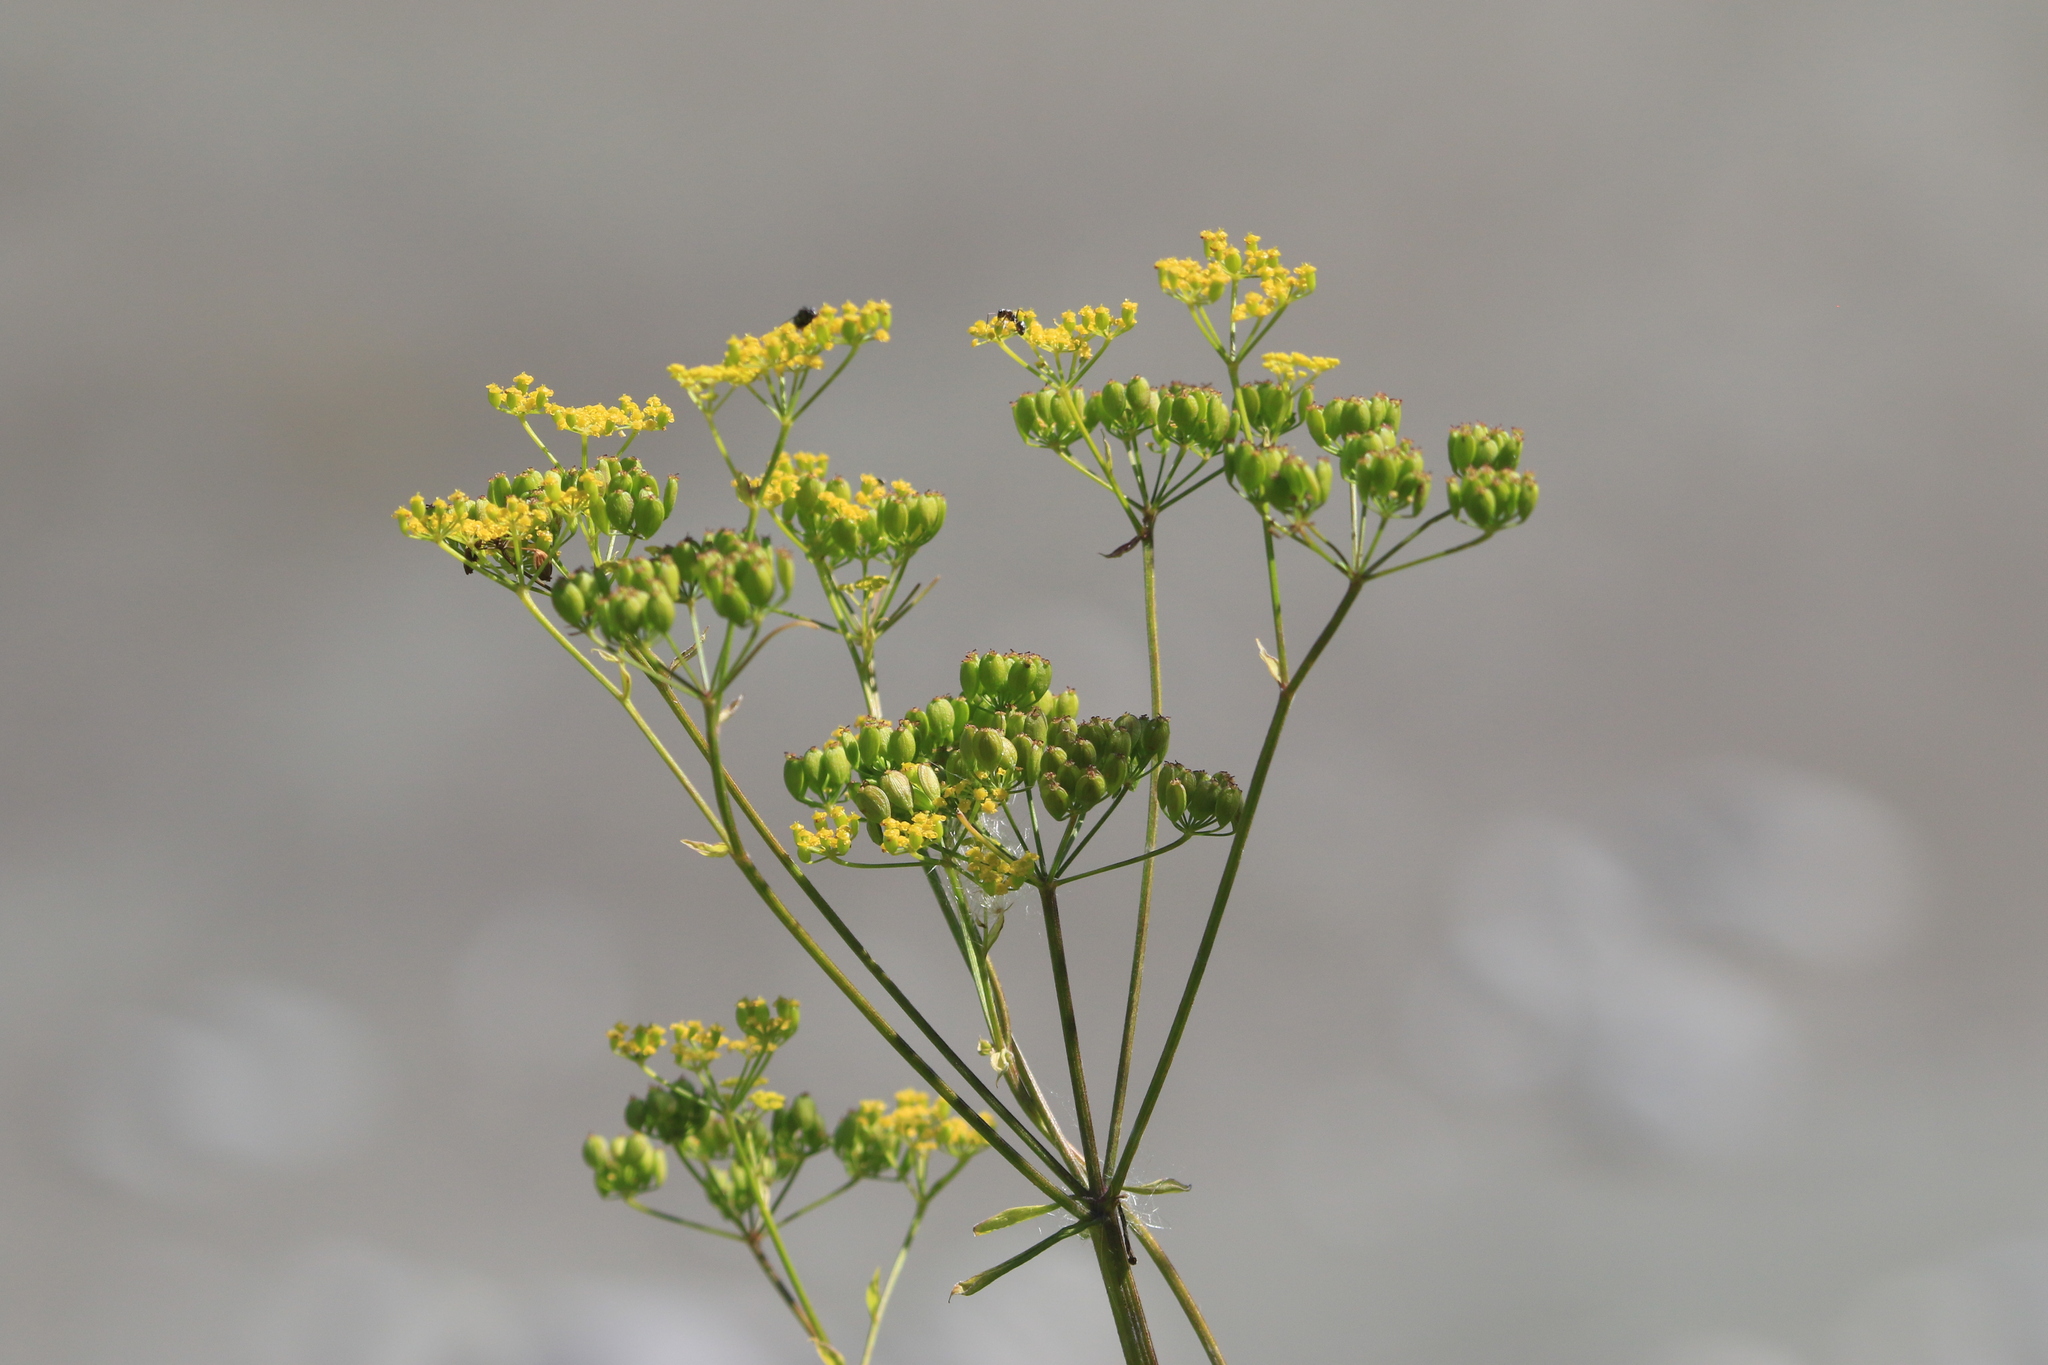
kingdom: Plantae
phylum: Tracheophyta
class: Magnoliopsida
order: Apiales
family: Apiaceae
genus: Pastinaca
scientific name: Pastinaca sativa
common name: Wild parsnip
